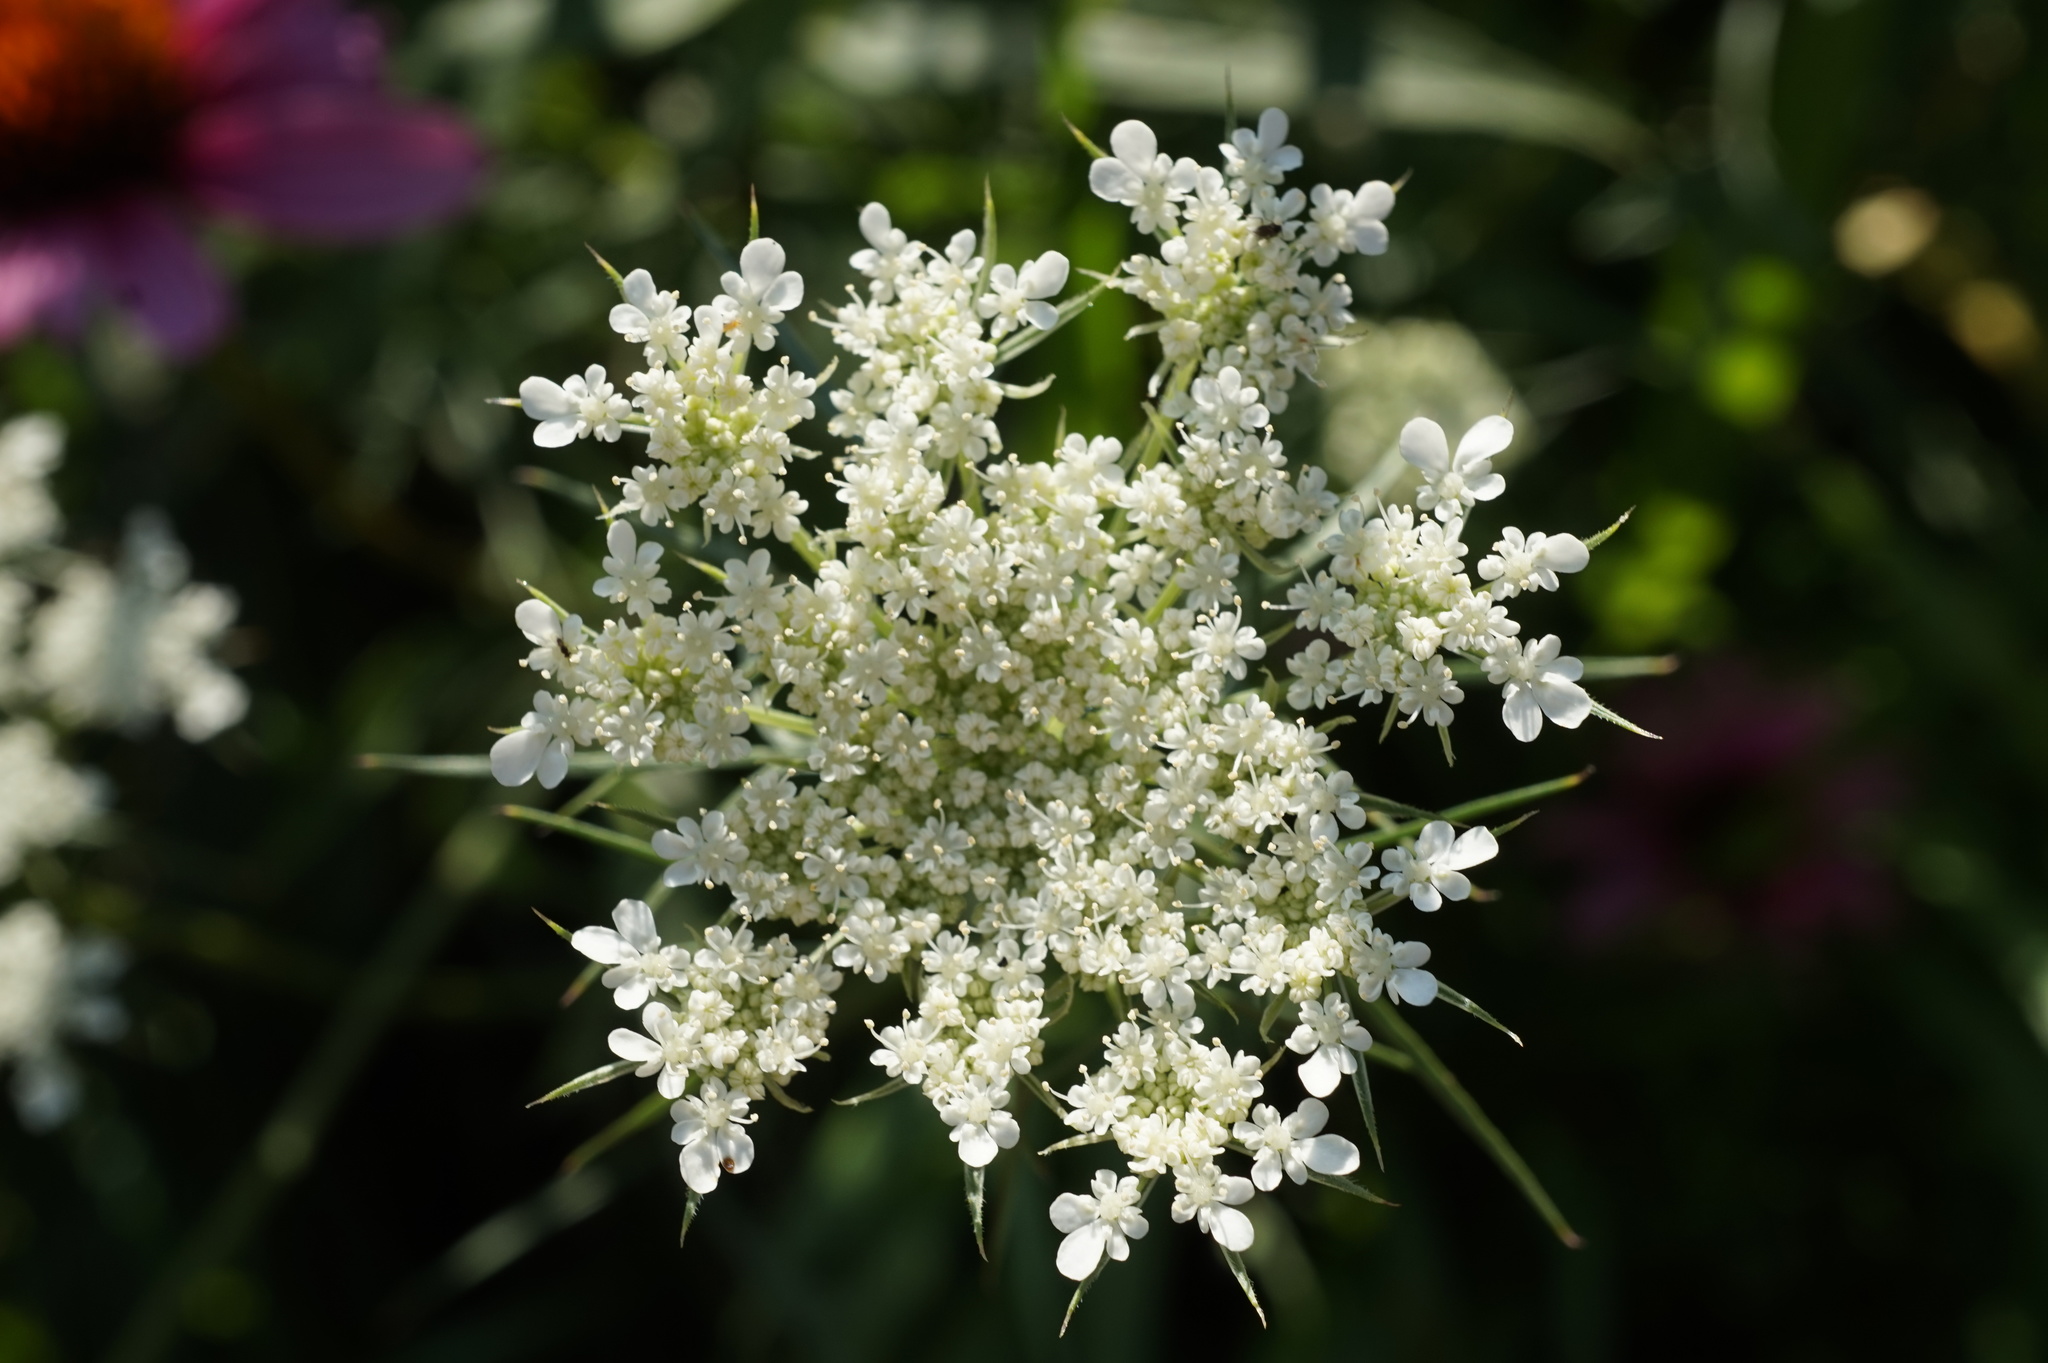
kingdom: Plantae
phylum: Tracheophyta
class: Magnoliopsida
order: Apiales
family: Apiaceae
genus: Daucus
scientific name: Daucus carota
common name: Wild carrot
